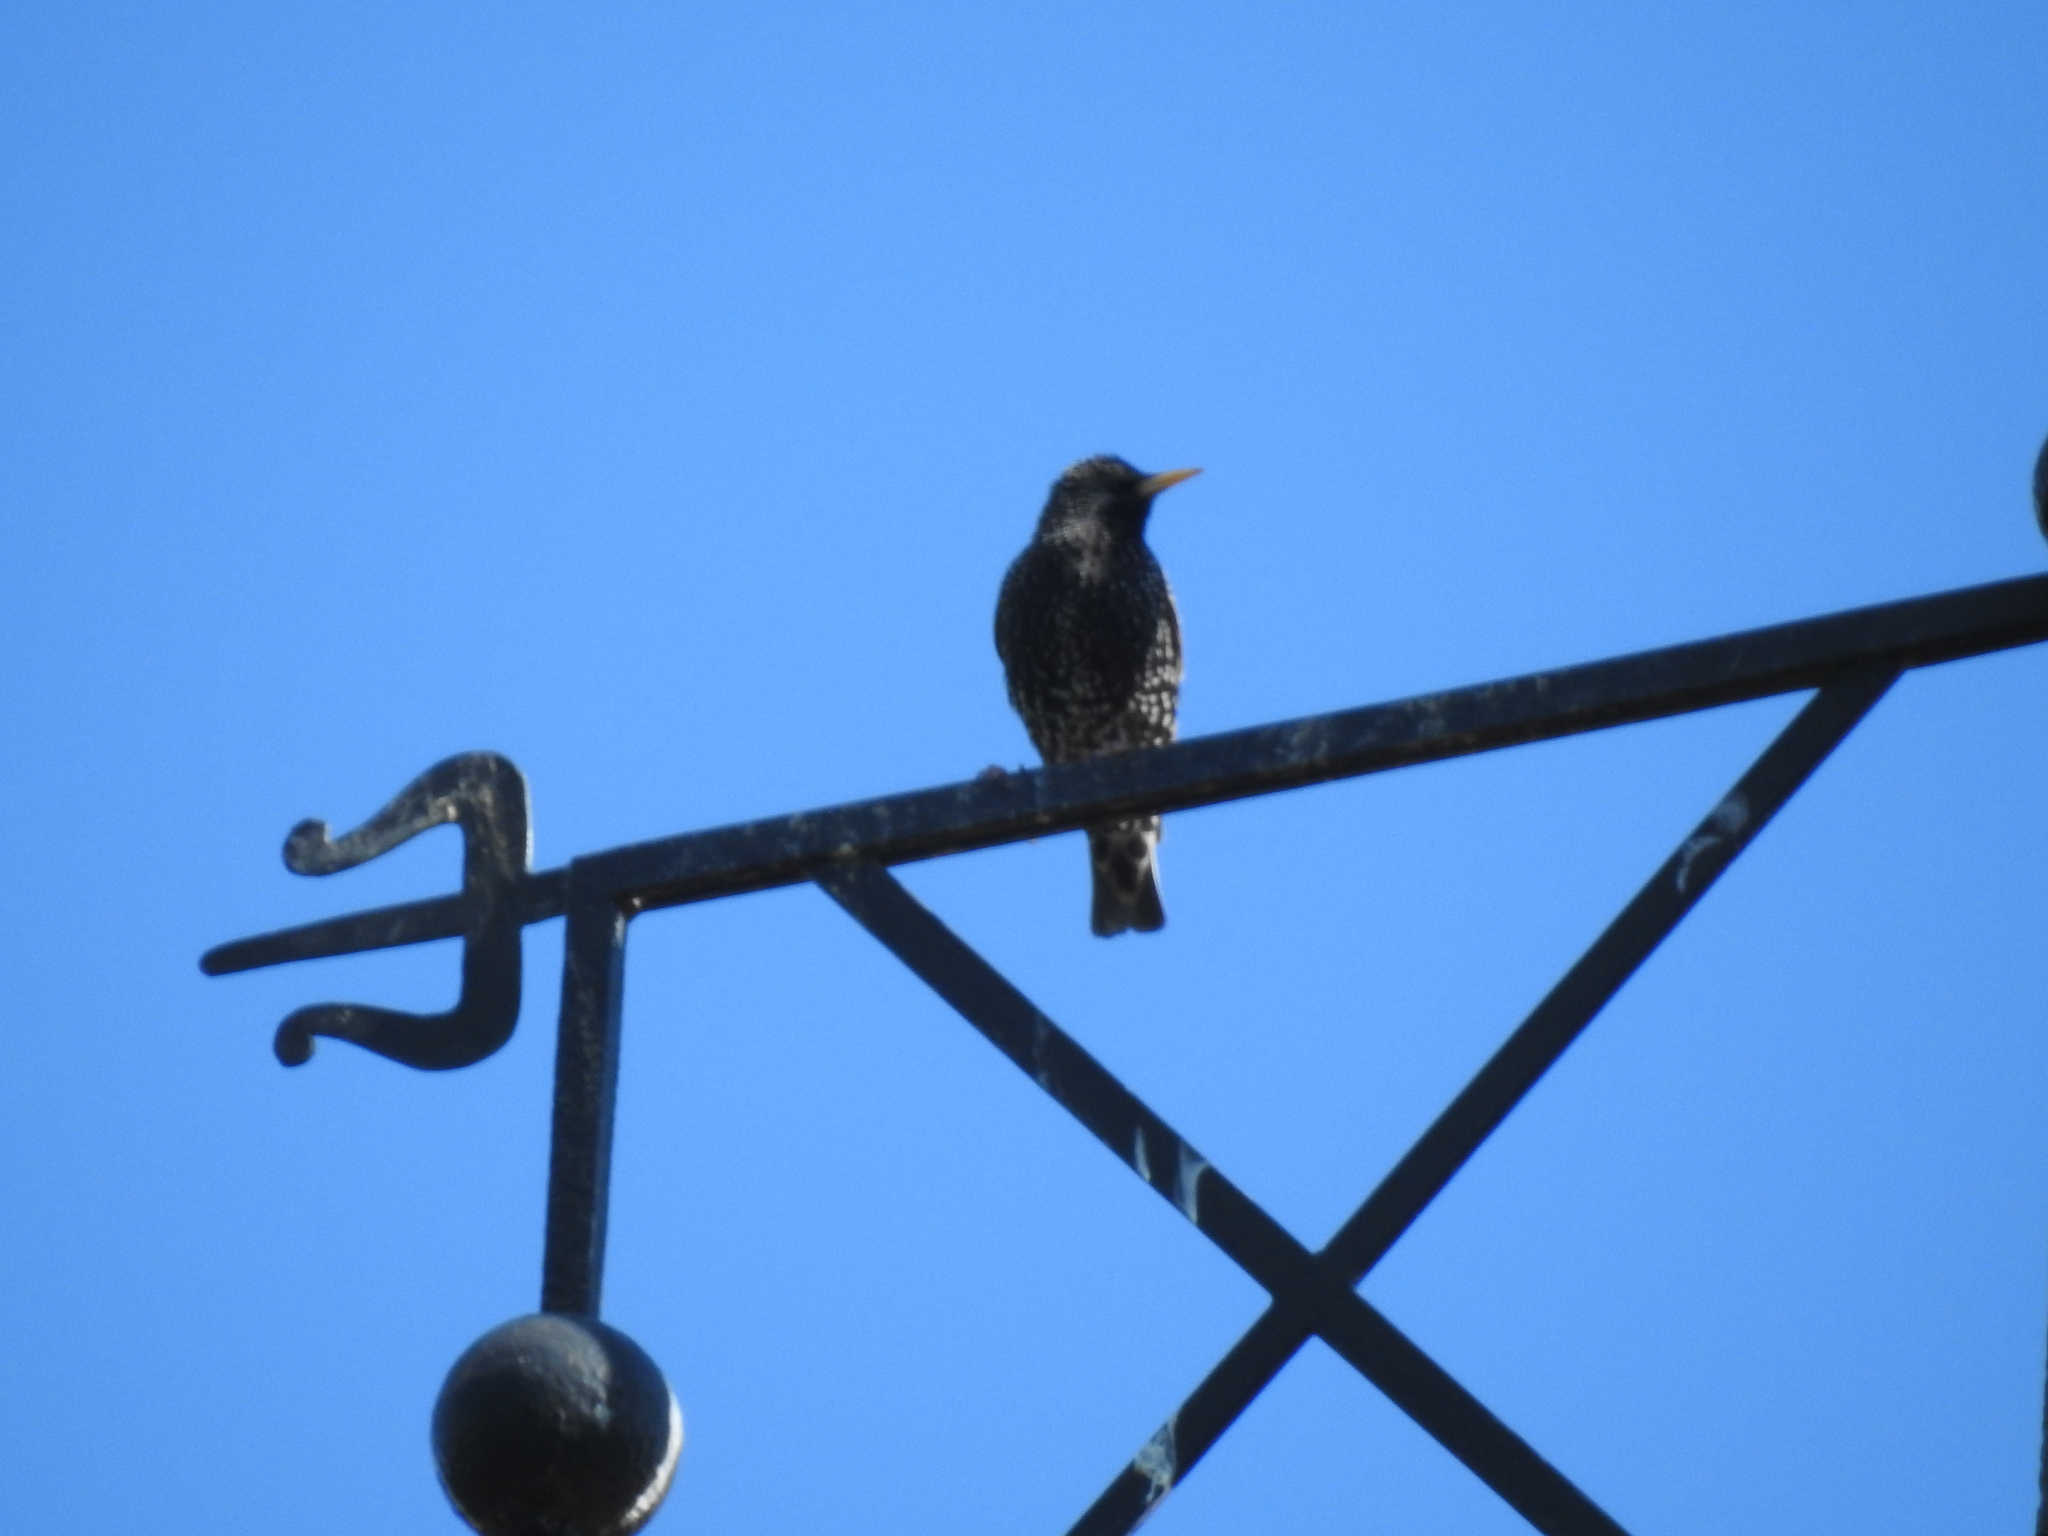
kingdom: Animalia
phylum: Chordata
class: Aves
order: Passeriformes
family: Sturnidae
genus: Sturnus
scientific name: Sturnus vulgaris
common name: Common starling
